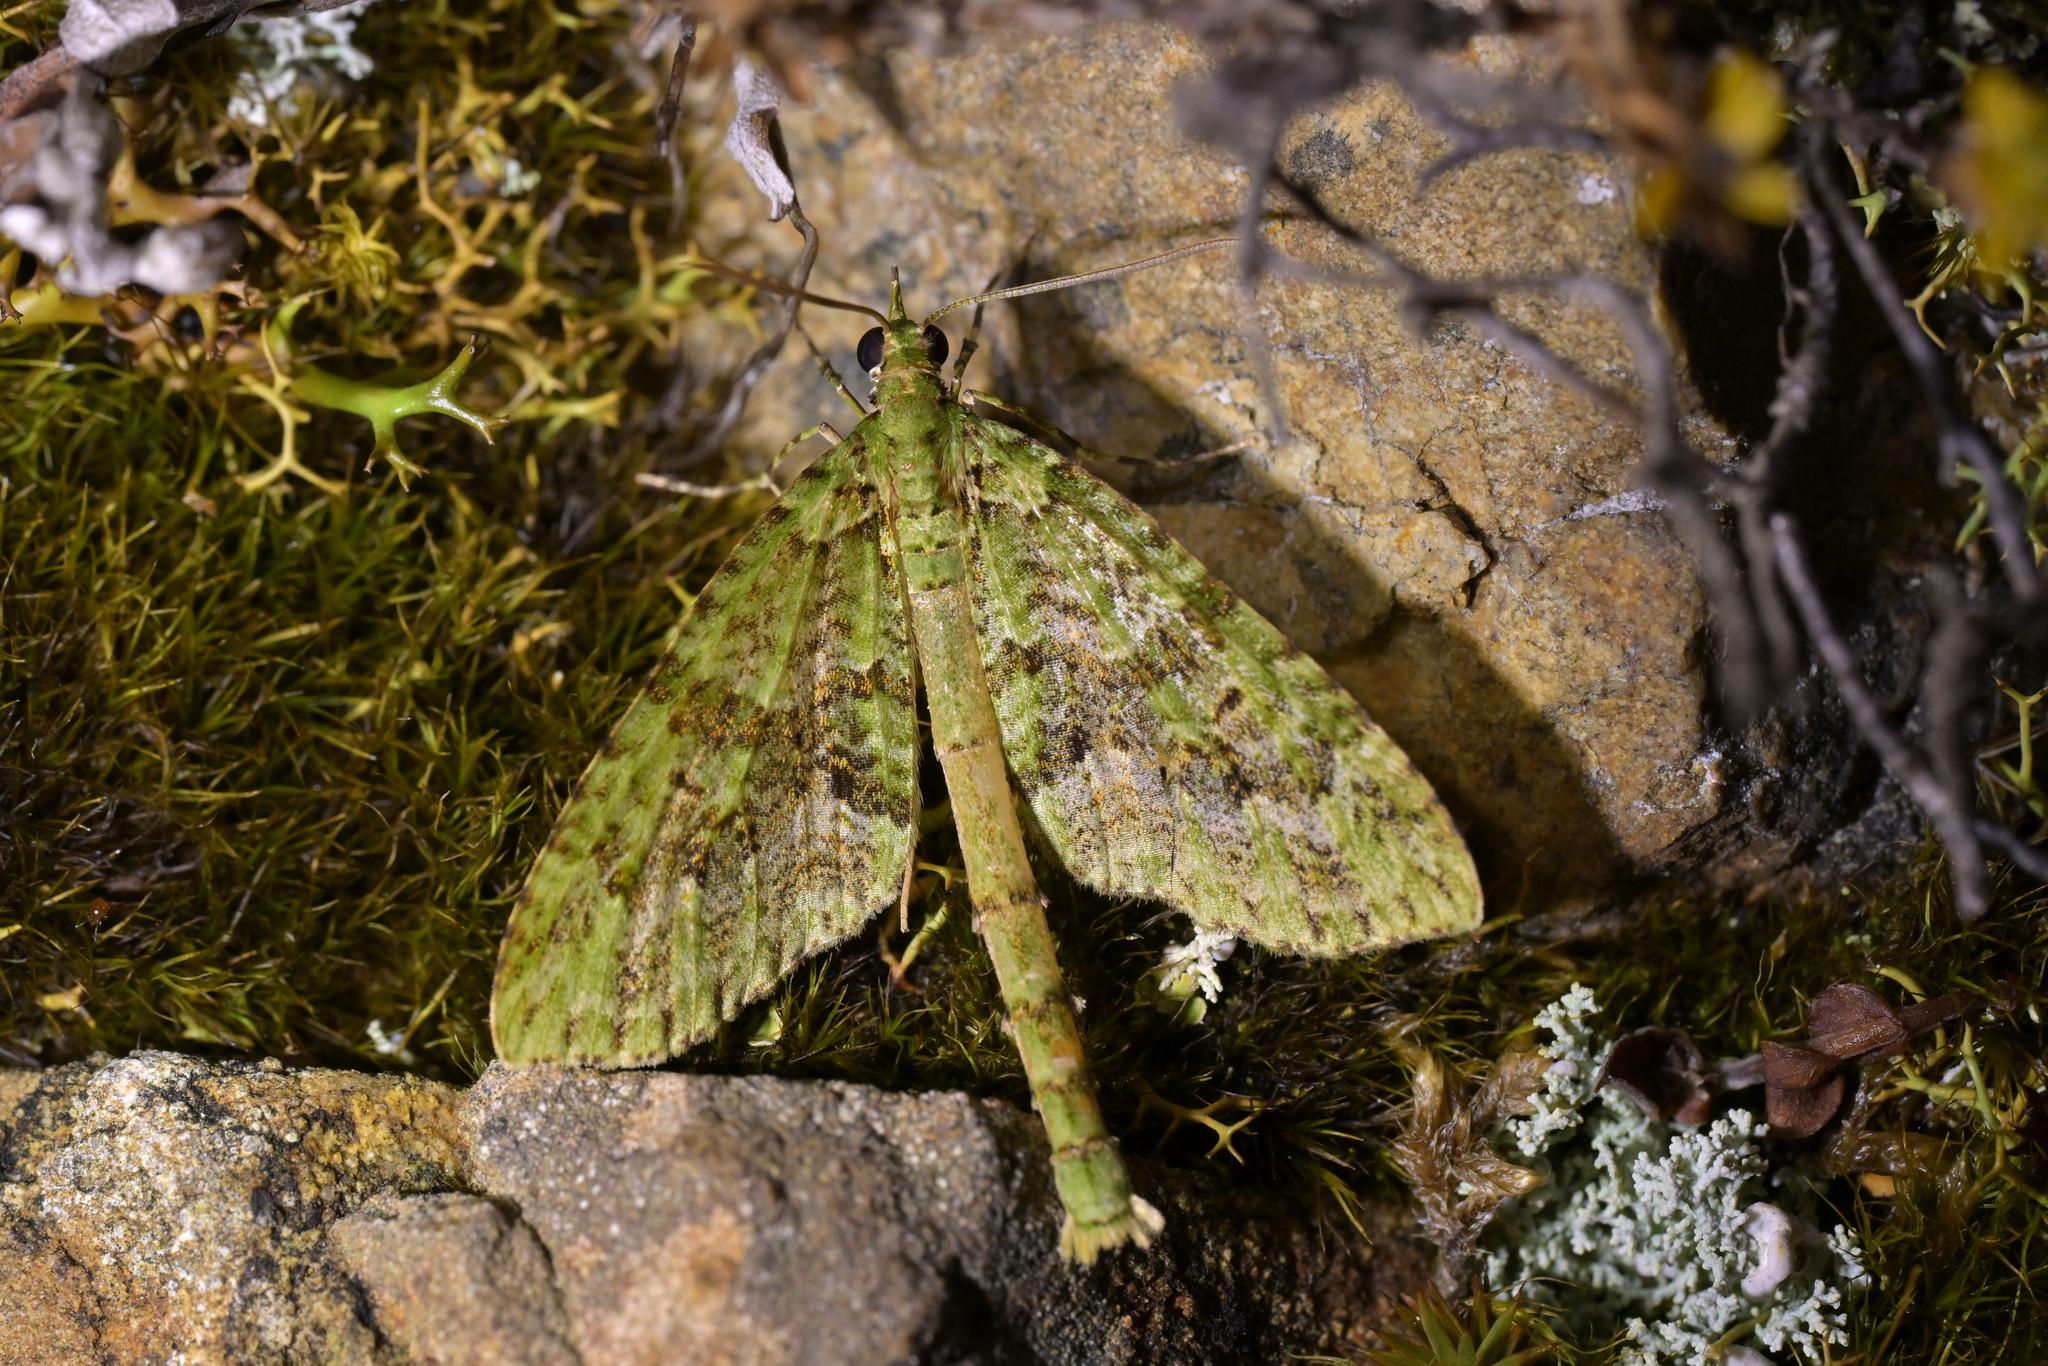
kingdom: Animalia
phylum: Arthropoda
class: Insecta
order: Lepidoptera
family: Geometridae
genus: Tatosoma
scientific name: Tatosoma tipulata
